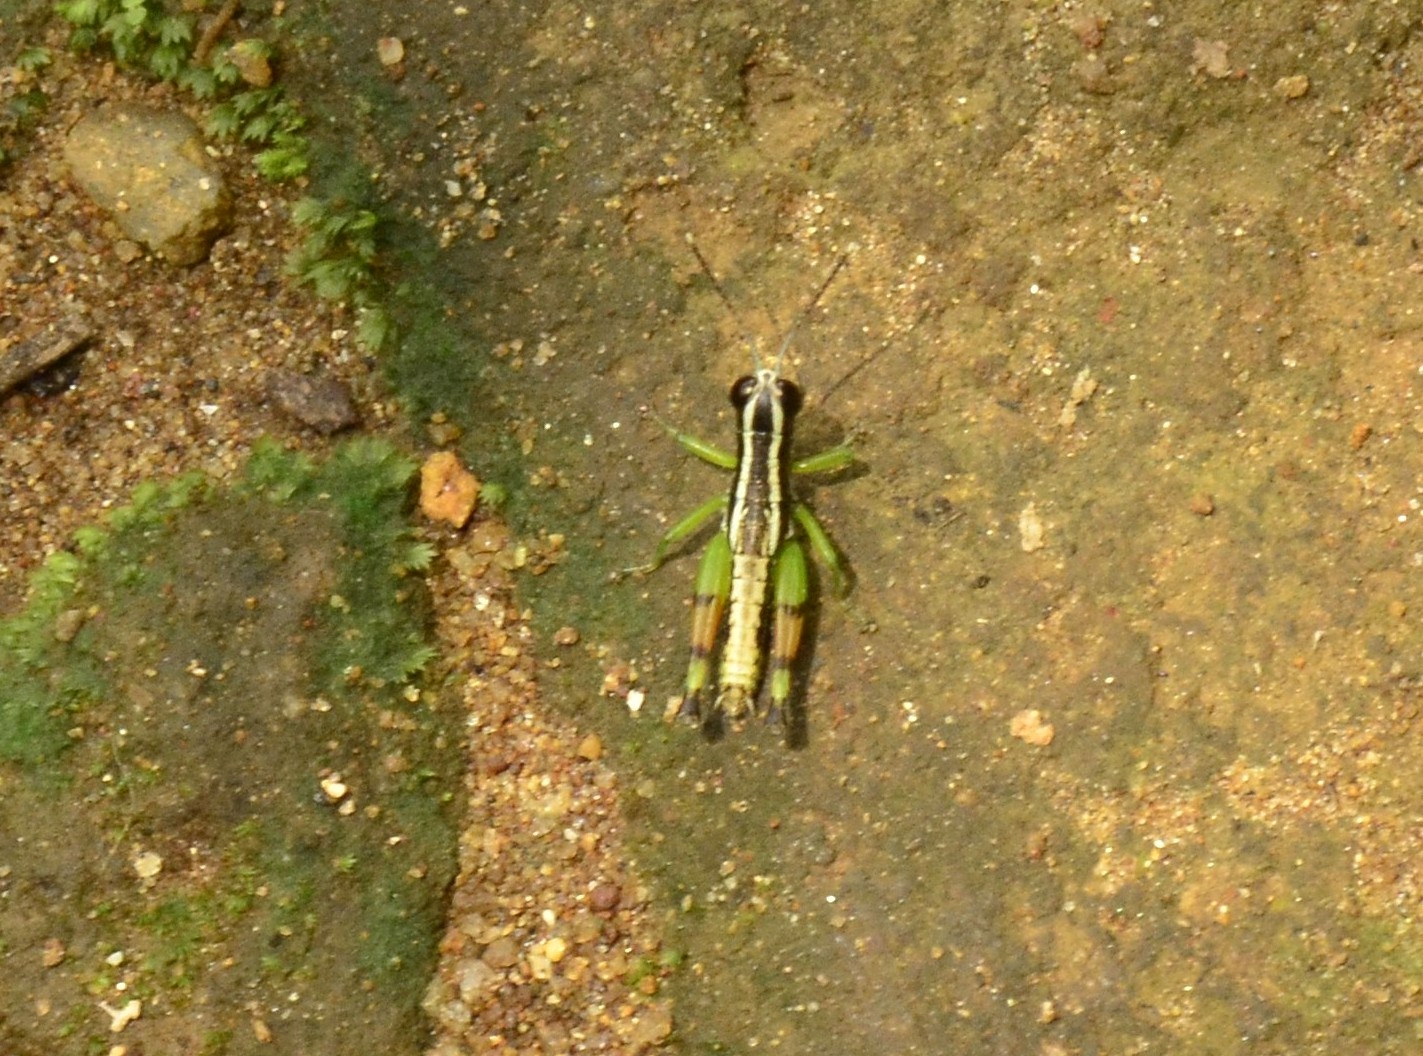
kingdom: Animalia
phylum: Arthropoda
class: Insecta
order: Orthoptera
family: Acrididae
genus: Chitaura
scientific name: Chitaura indica
